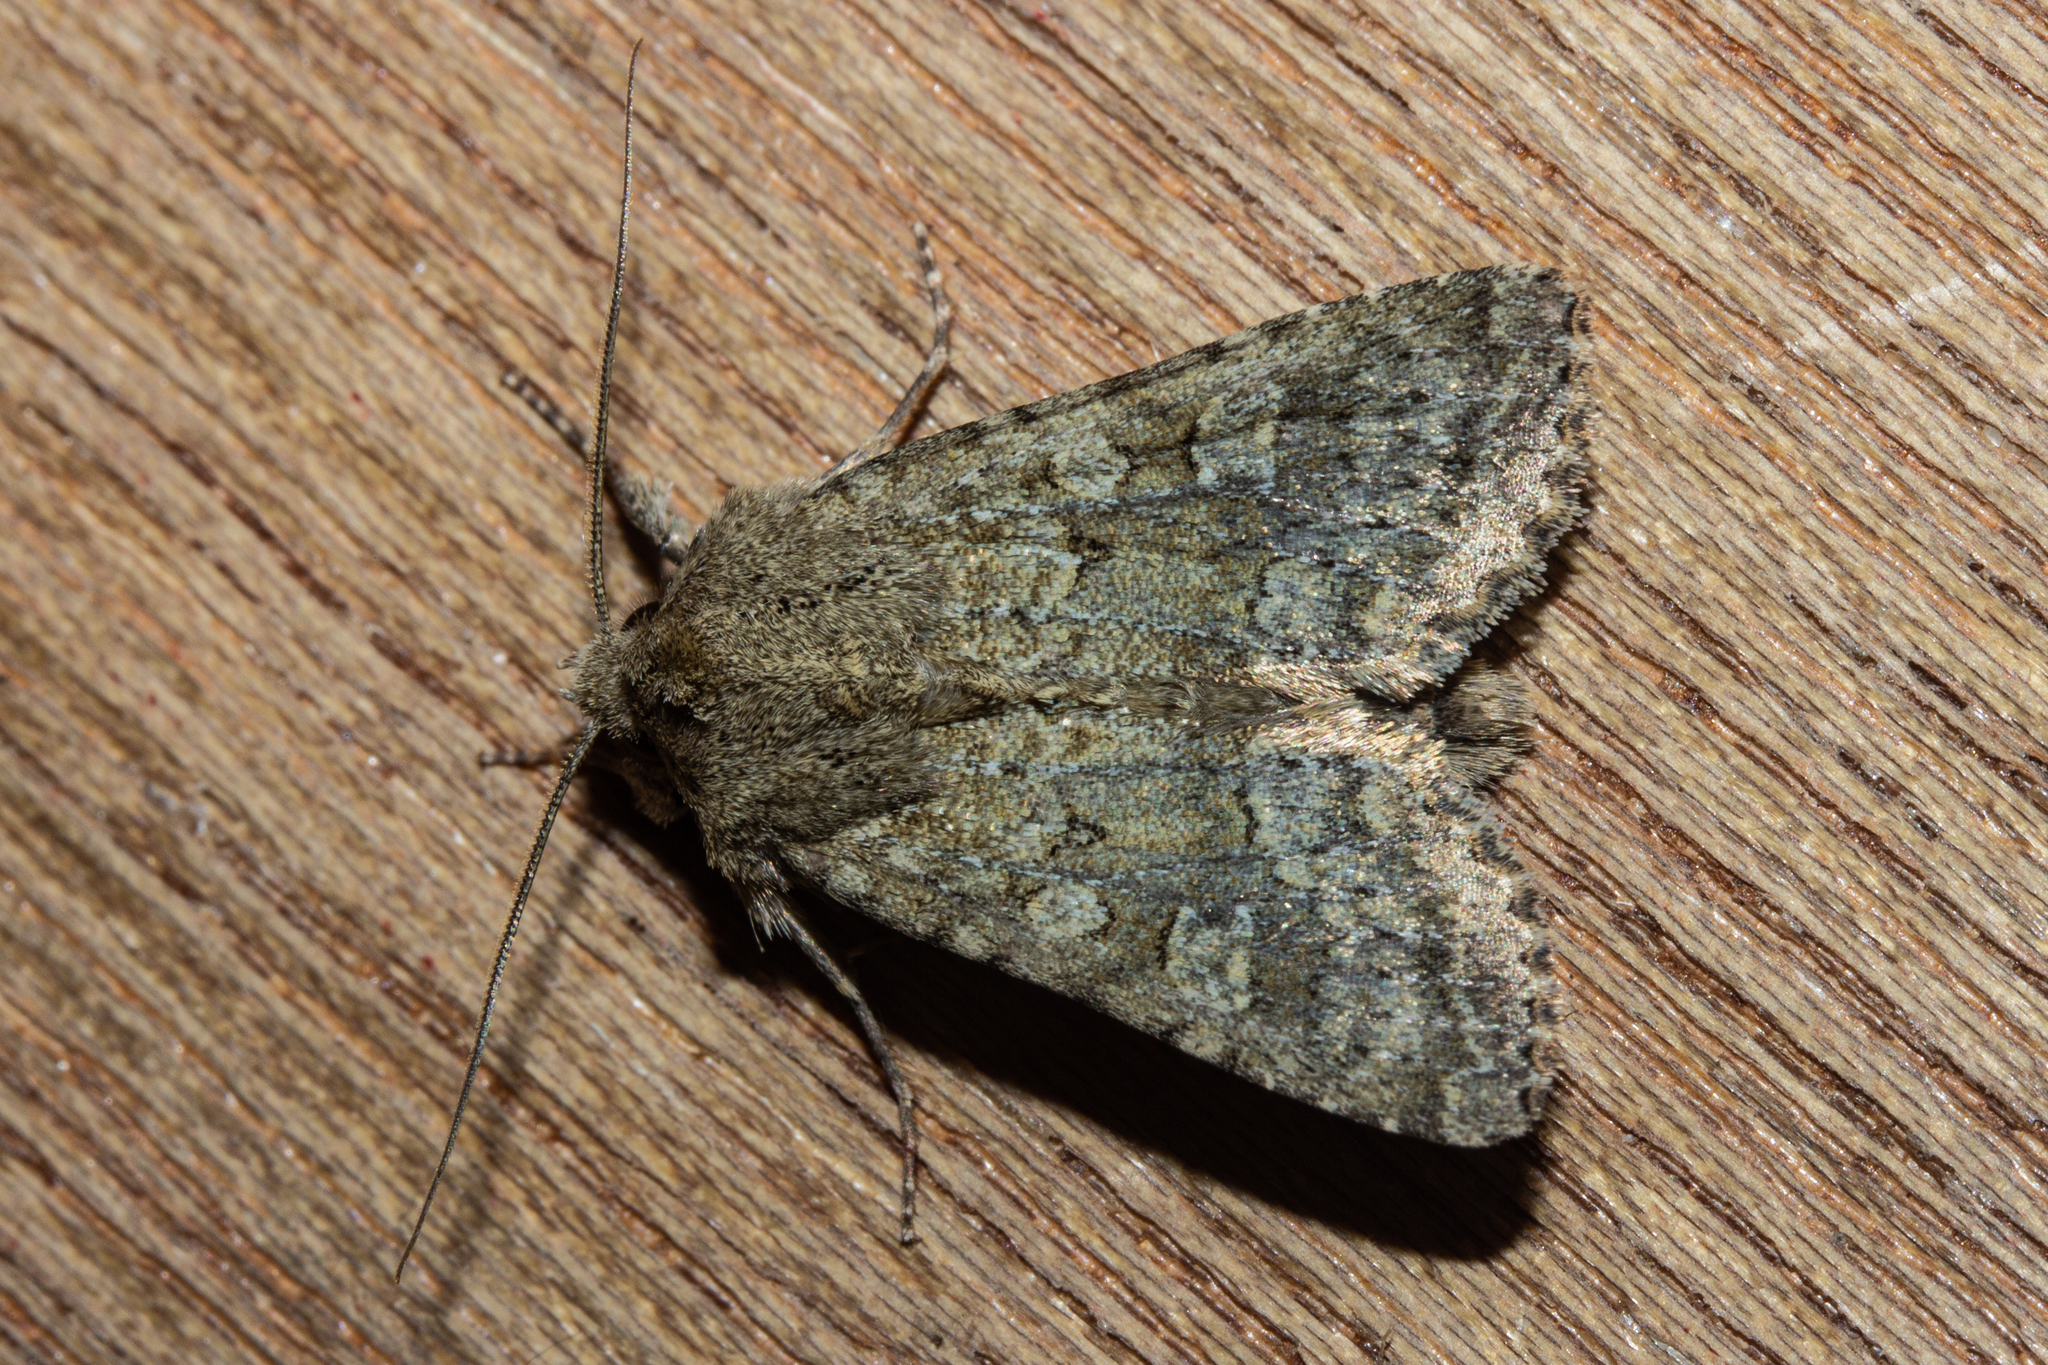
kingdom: Animalia
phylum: Arthropoda
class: Insecta
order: Lepidoptera
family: Noctuidae
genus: Ichneutica
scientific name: Ichneutica barbara
